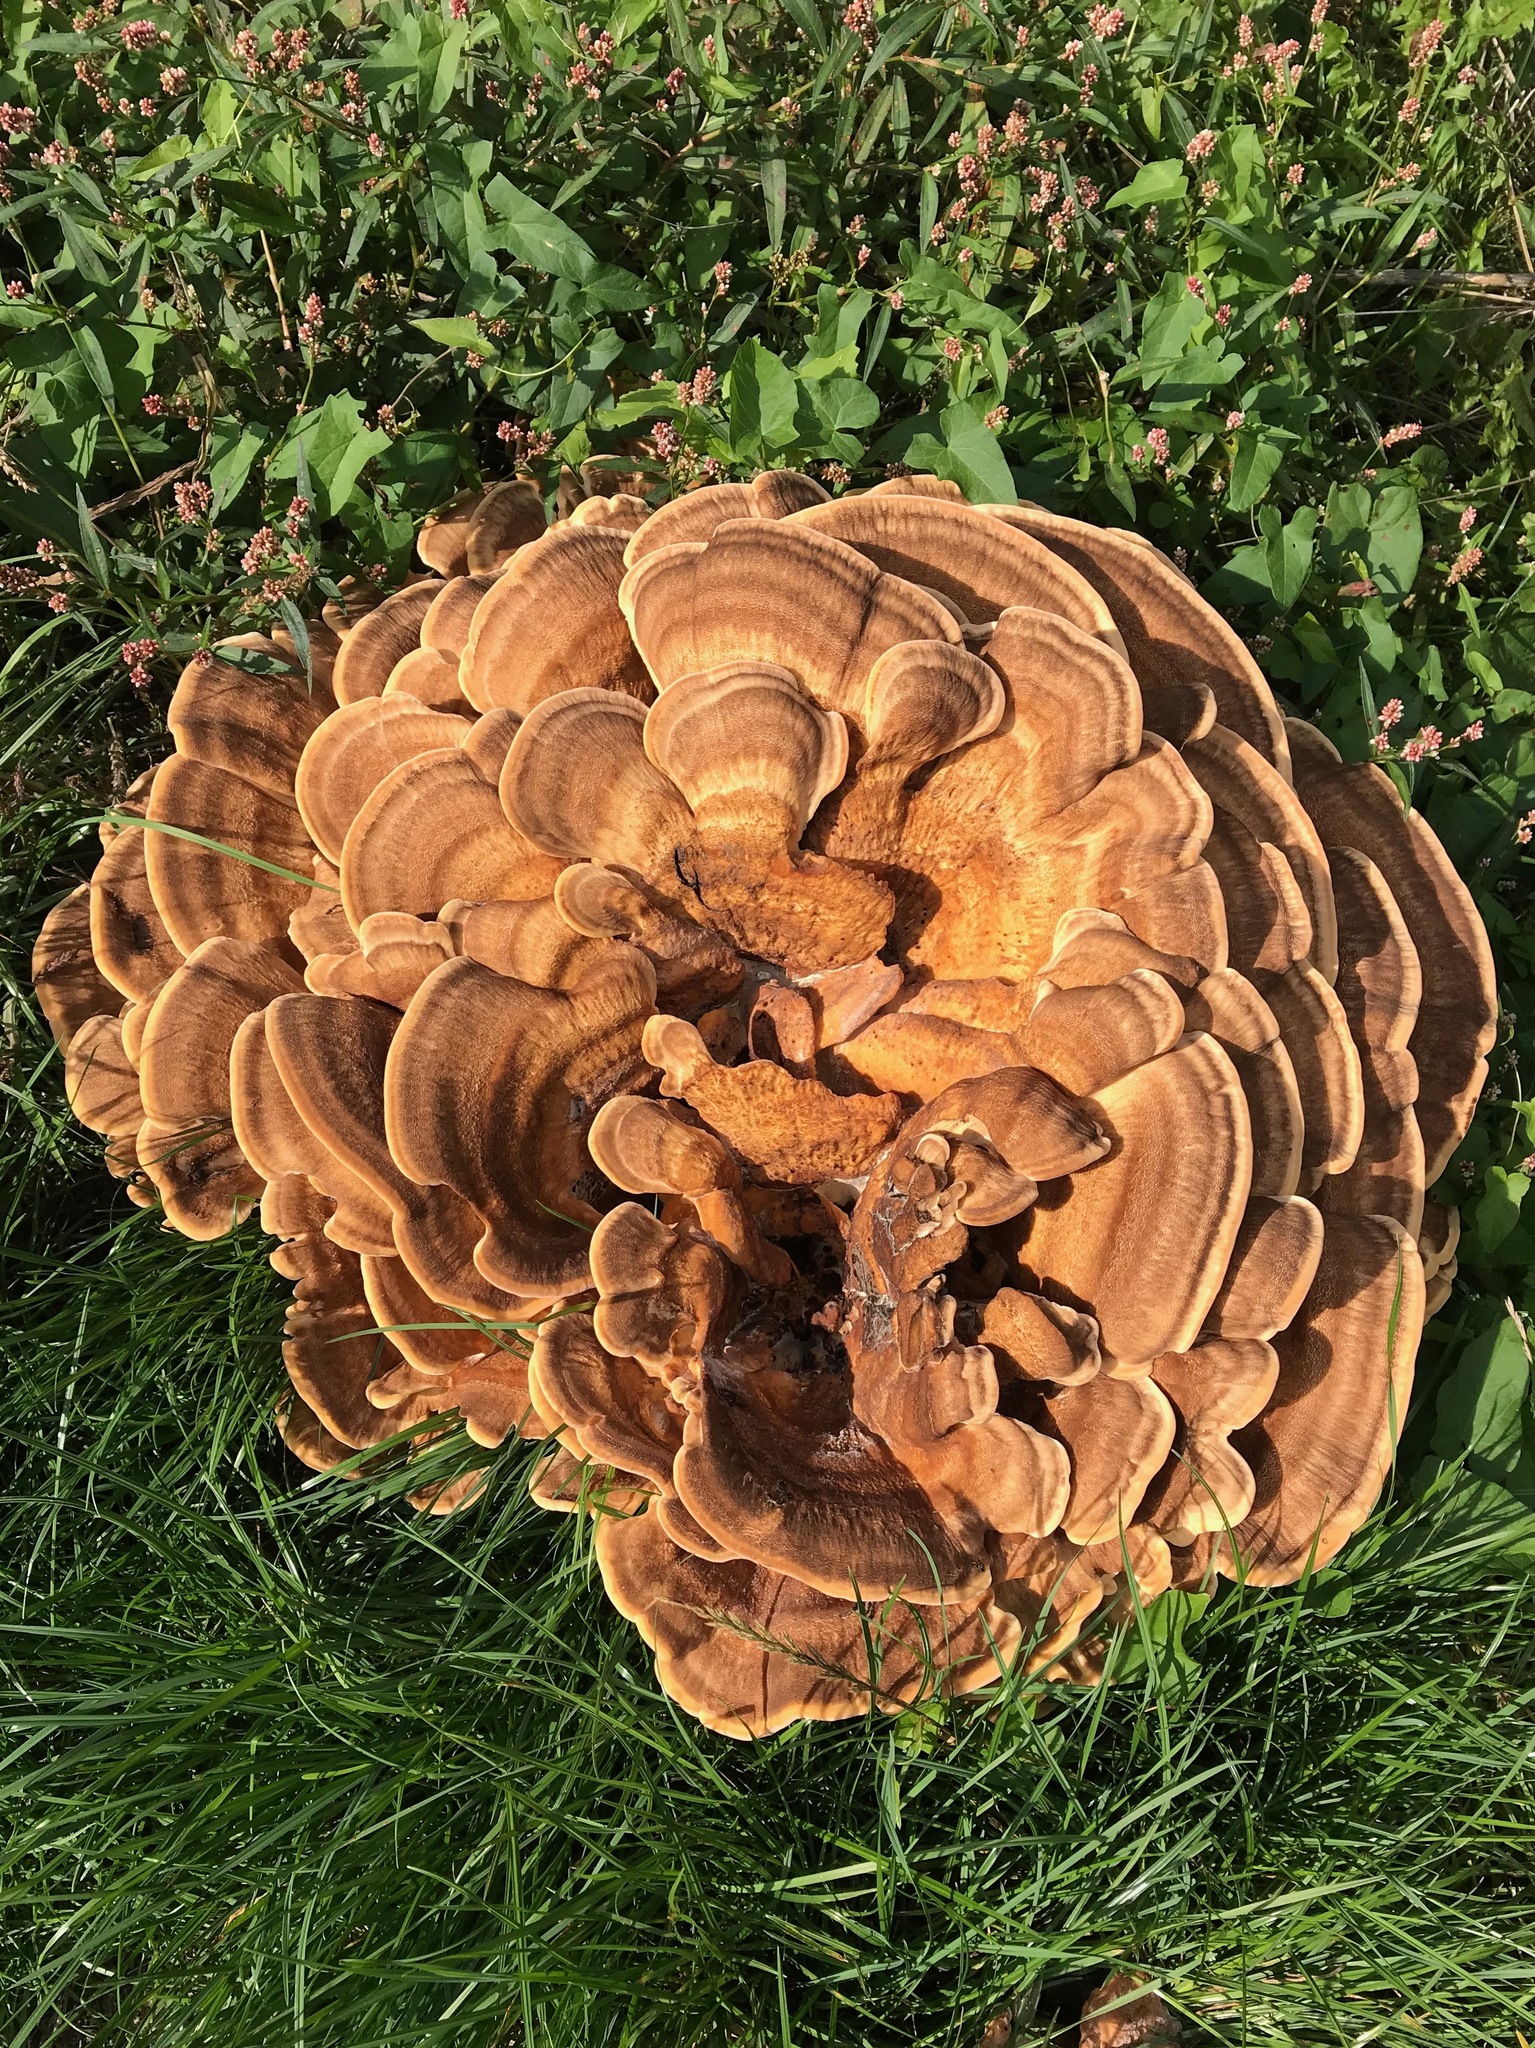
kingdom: Fungi
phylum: Basidiomycota
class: Agaricomycetes
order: Polyporales
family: Meripilaceae
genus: Meripilus
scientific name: Meripilus giganteus
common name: Giant polypore
